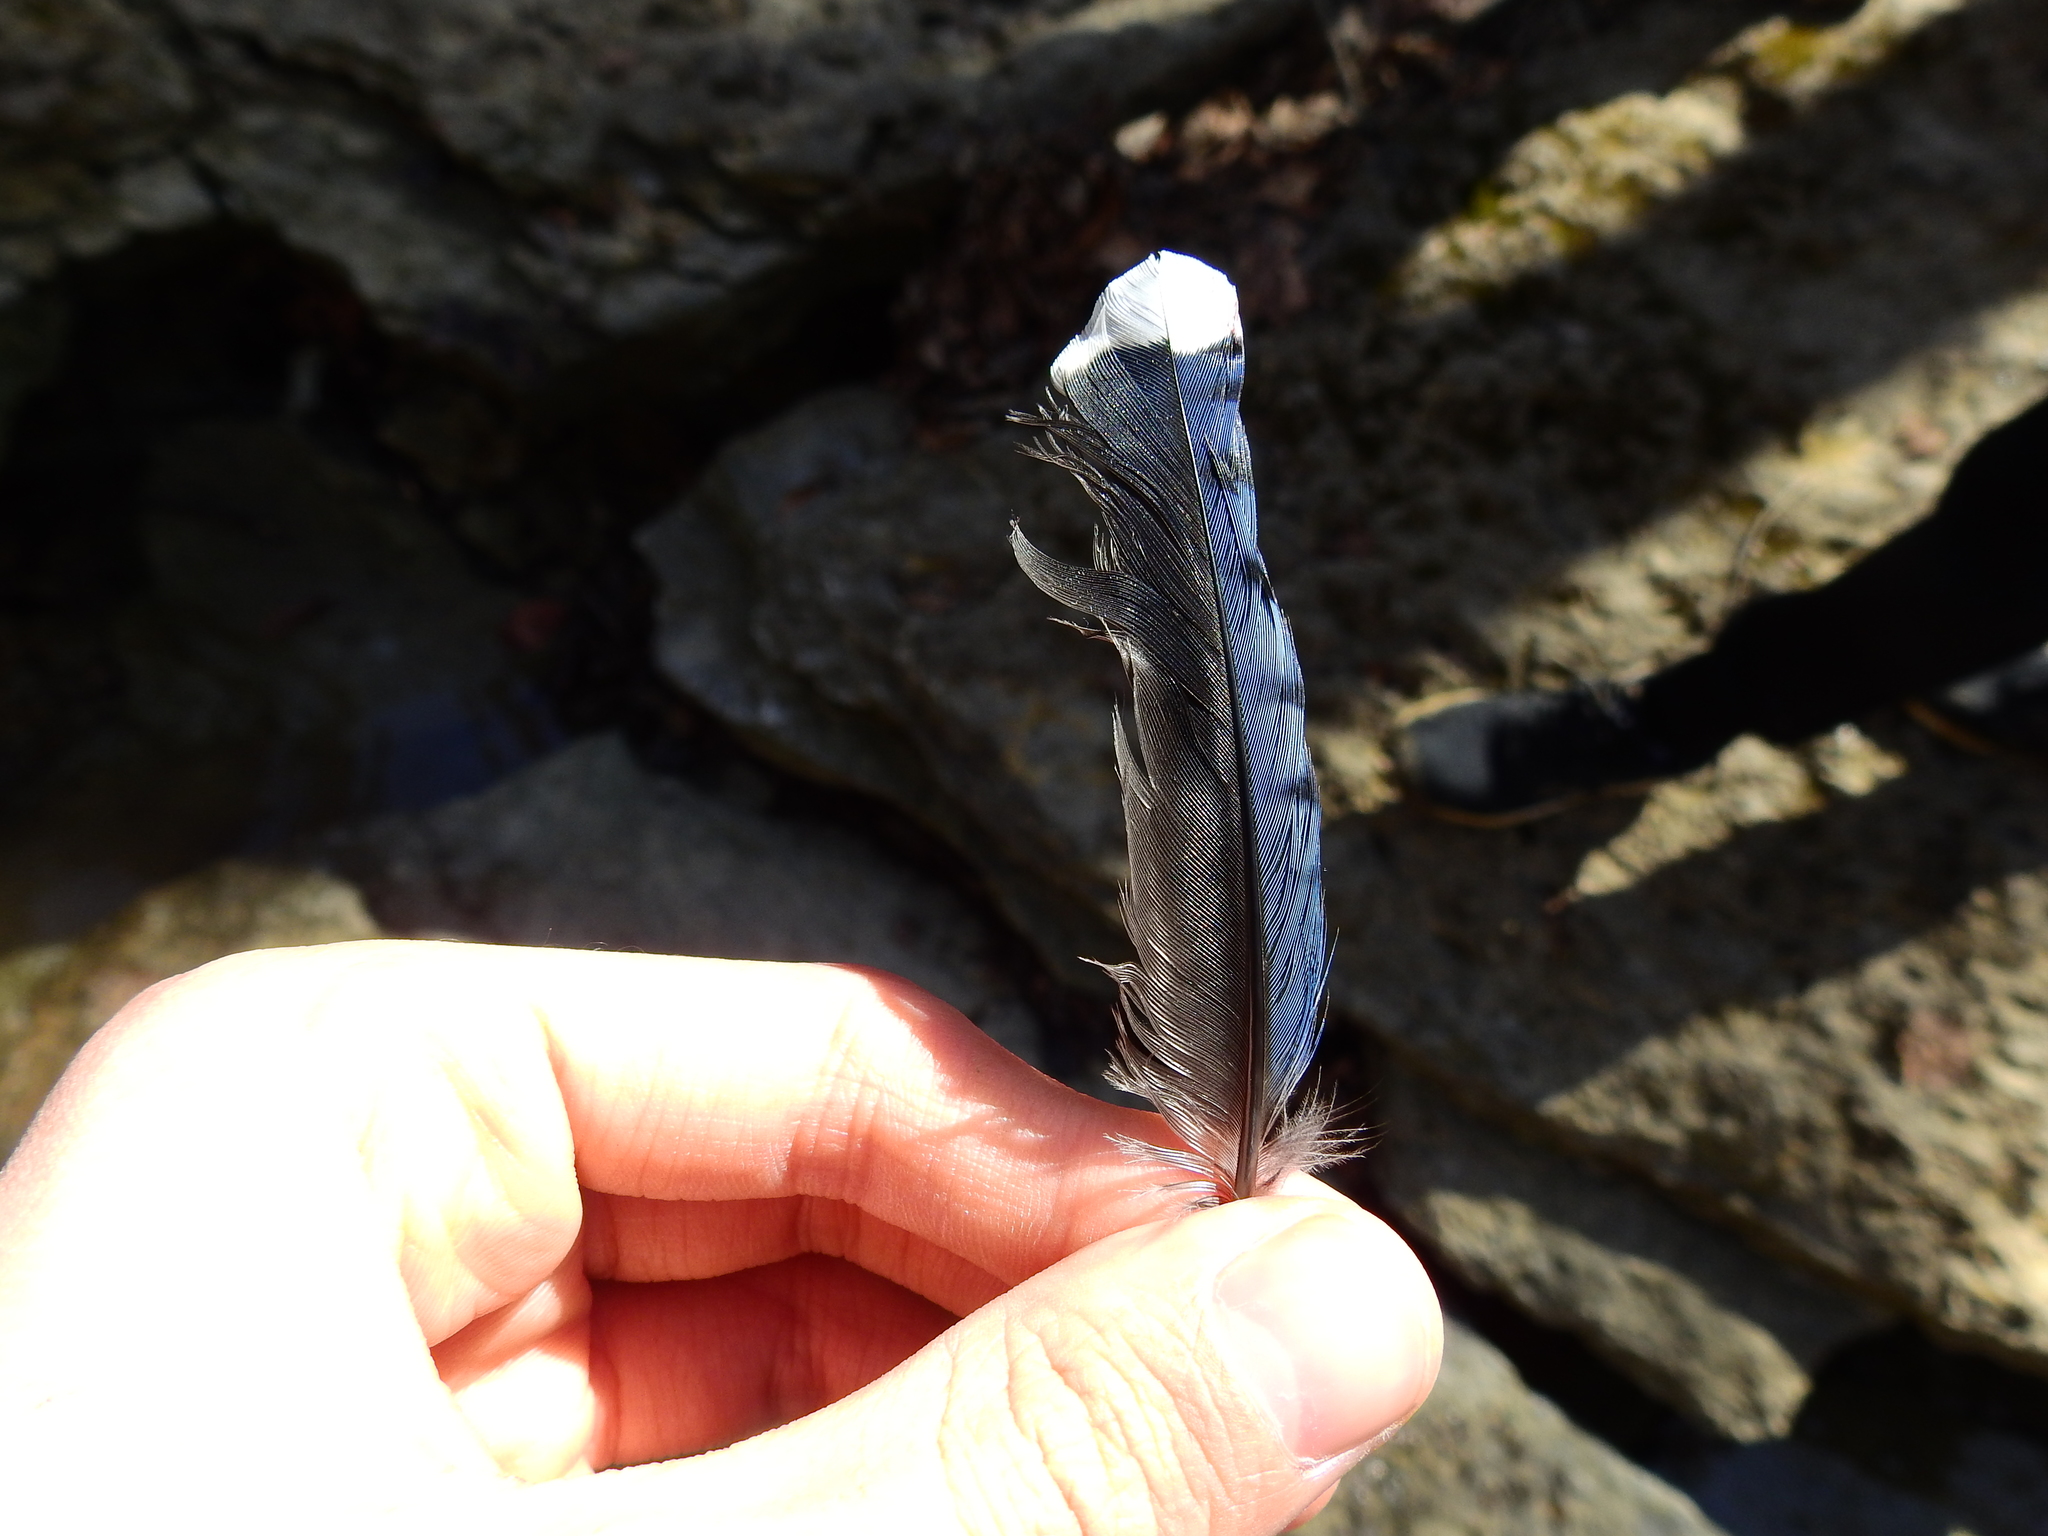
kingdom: Animalia
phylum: Chordata
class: Aves
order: Passeriformes
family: Corvidae
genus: Cyanocitta
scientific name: Cyanocitta cristata
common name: Blue jay
